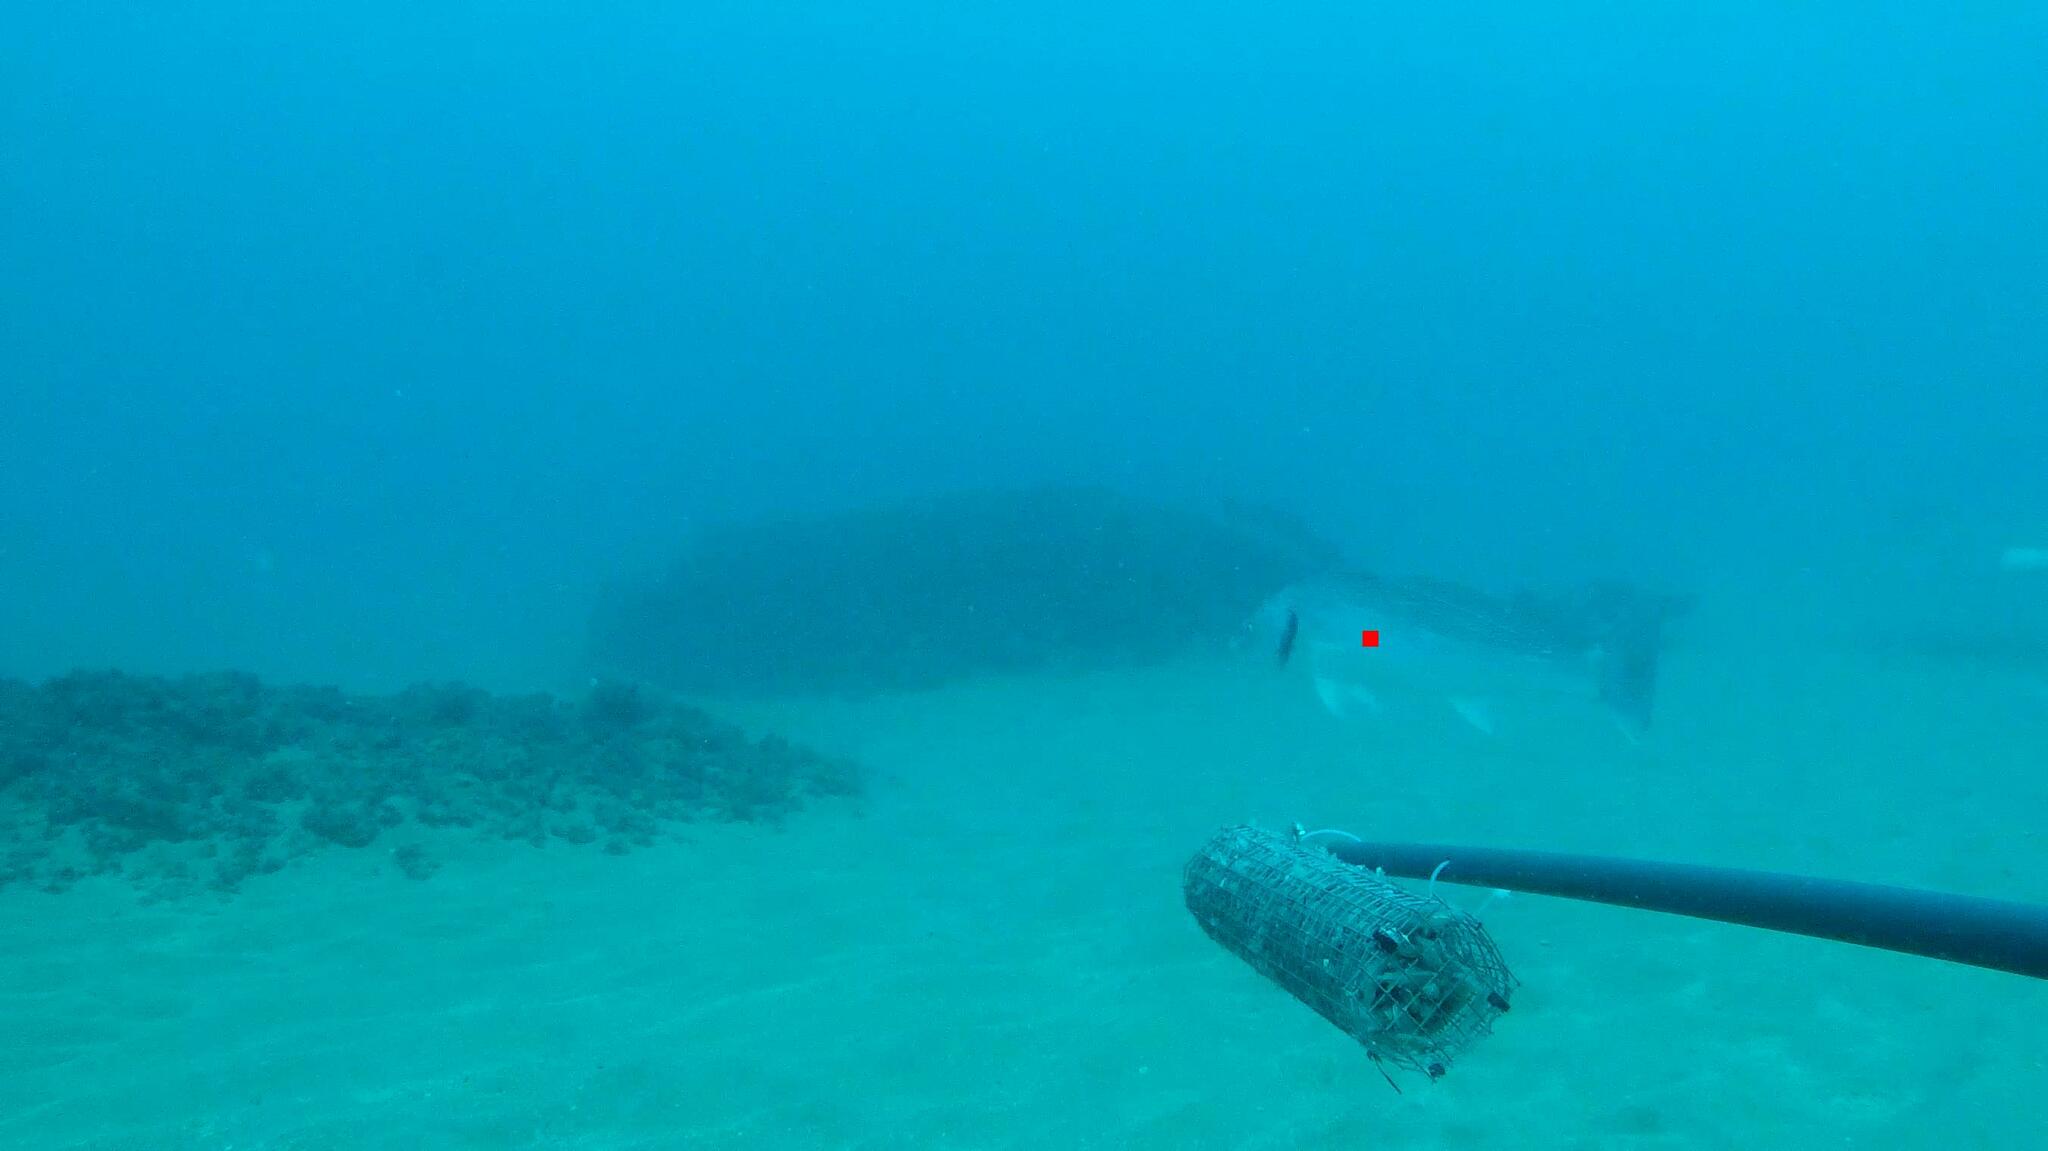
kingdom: Animalia
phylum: Chordata
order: Perciformes
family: Sciaenidae
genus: Umbrina
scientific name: Umbrina cirrosa
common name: Shi drum
